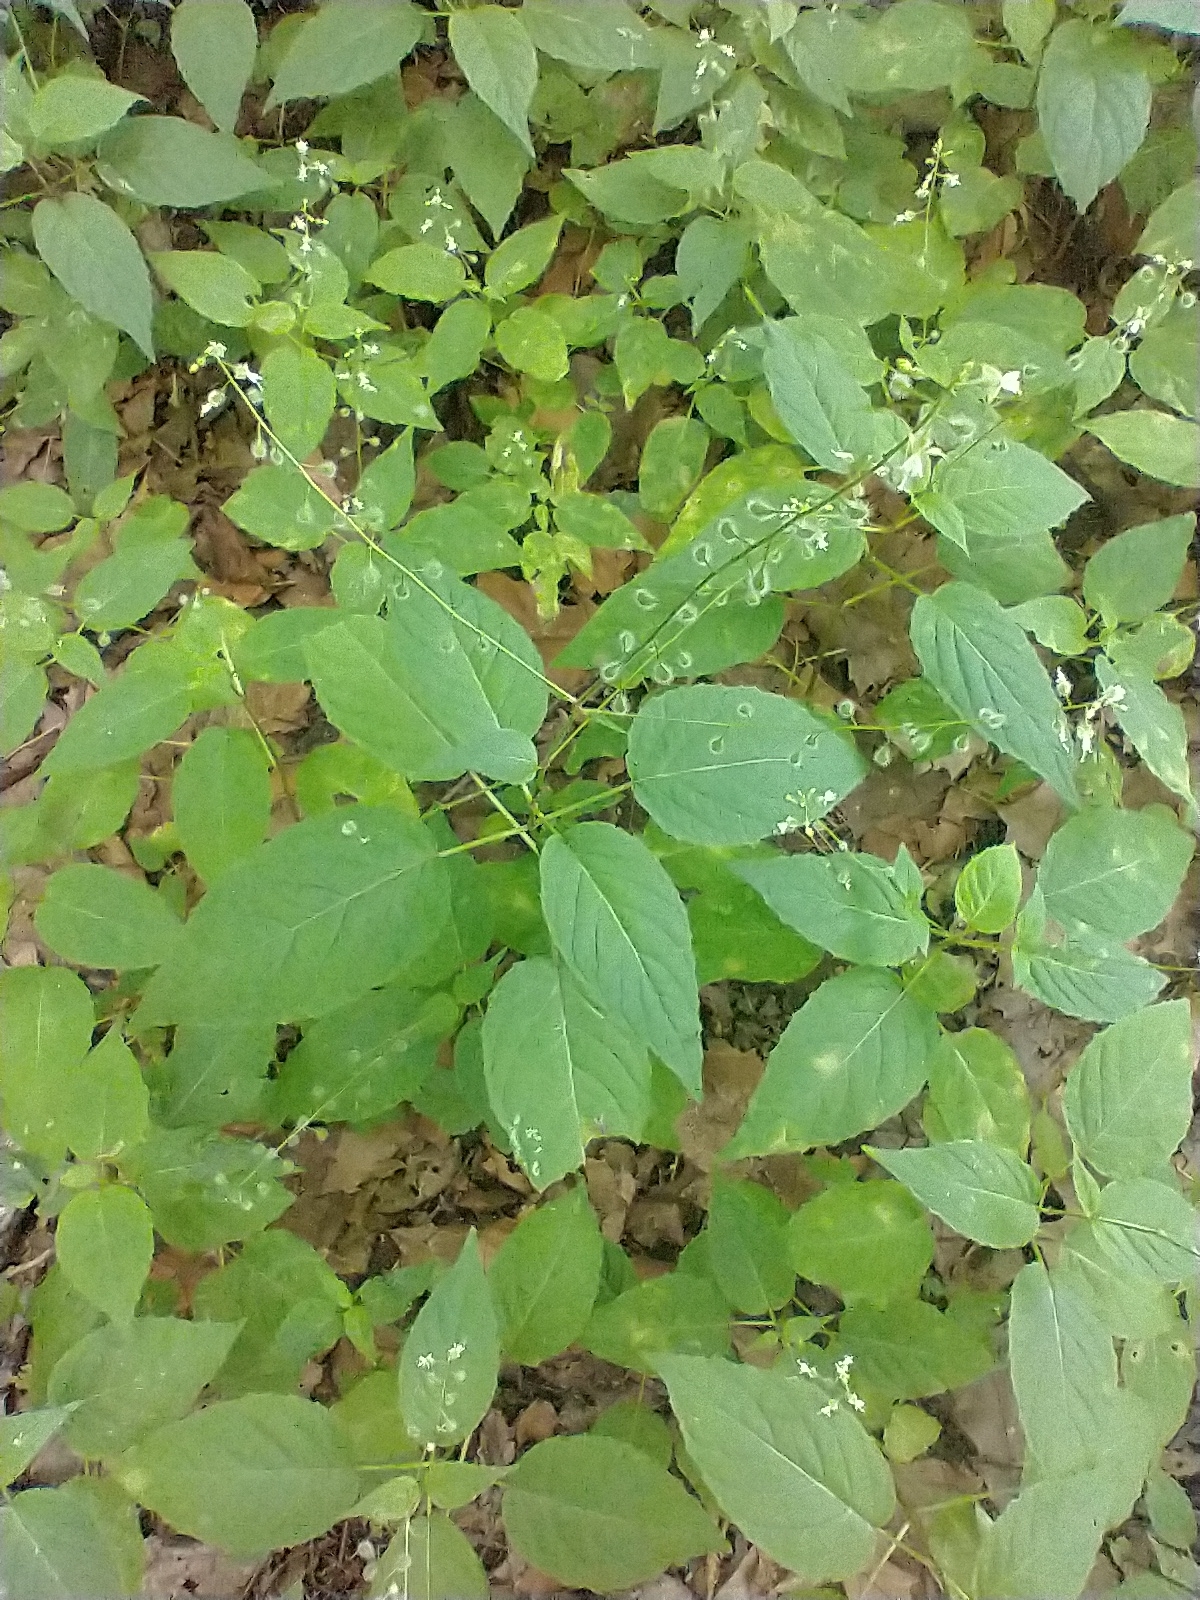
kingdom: Plantae
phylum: Tracheophyta
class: Magnoliopsida
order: Myrtales
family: Onagraceae
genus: Circaea
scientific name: Circaea canadensis
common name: Broad-leaved enchanter's nightshade
